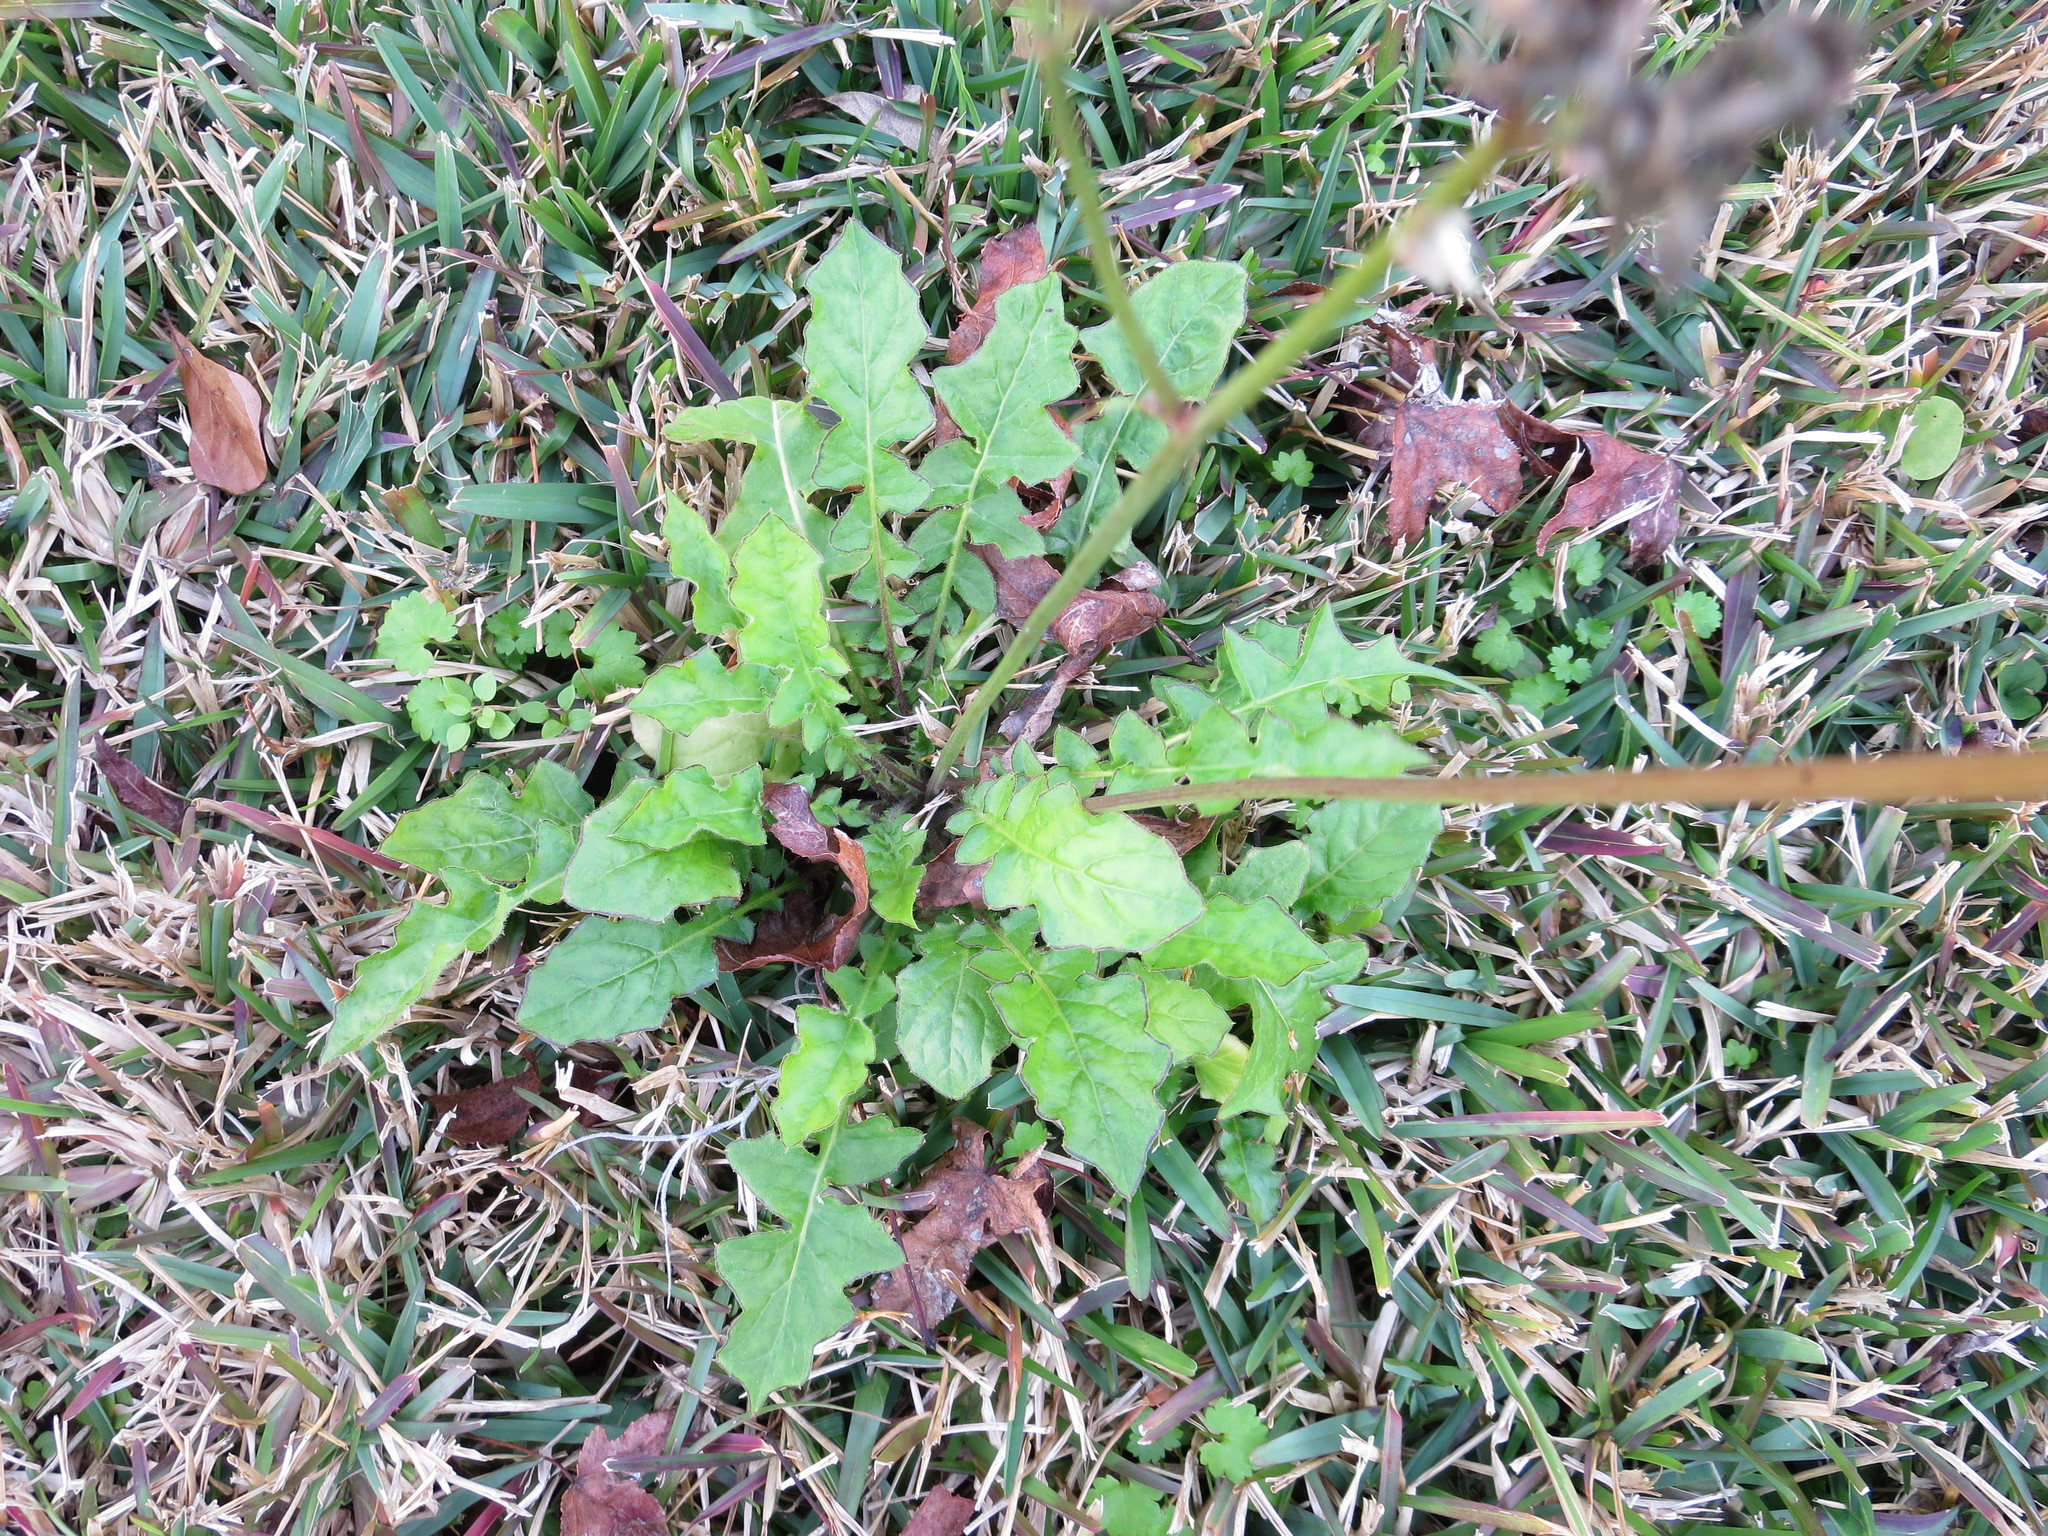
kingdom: Plantae
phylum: Tracheophyta
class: Magnoliopsida
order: Asterales
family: Asteraceae
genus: Youngia
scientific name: Youngia japonica
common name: Oriental false hawksbeard
